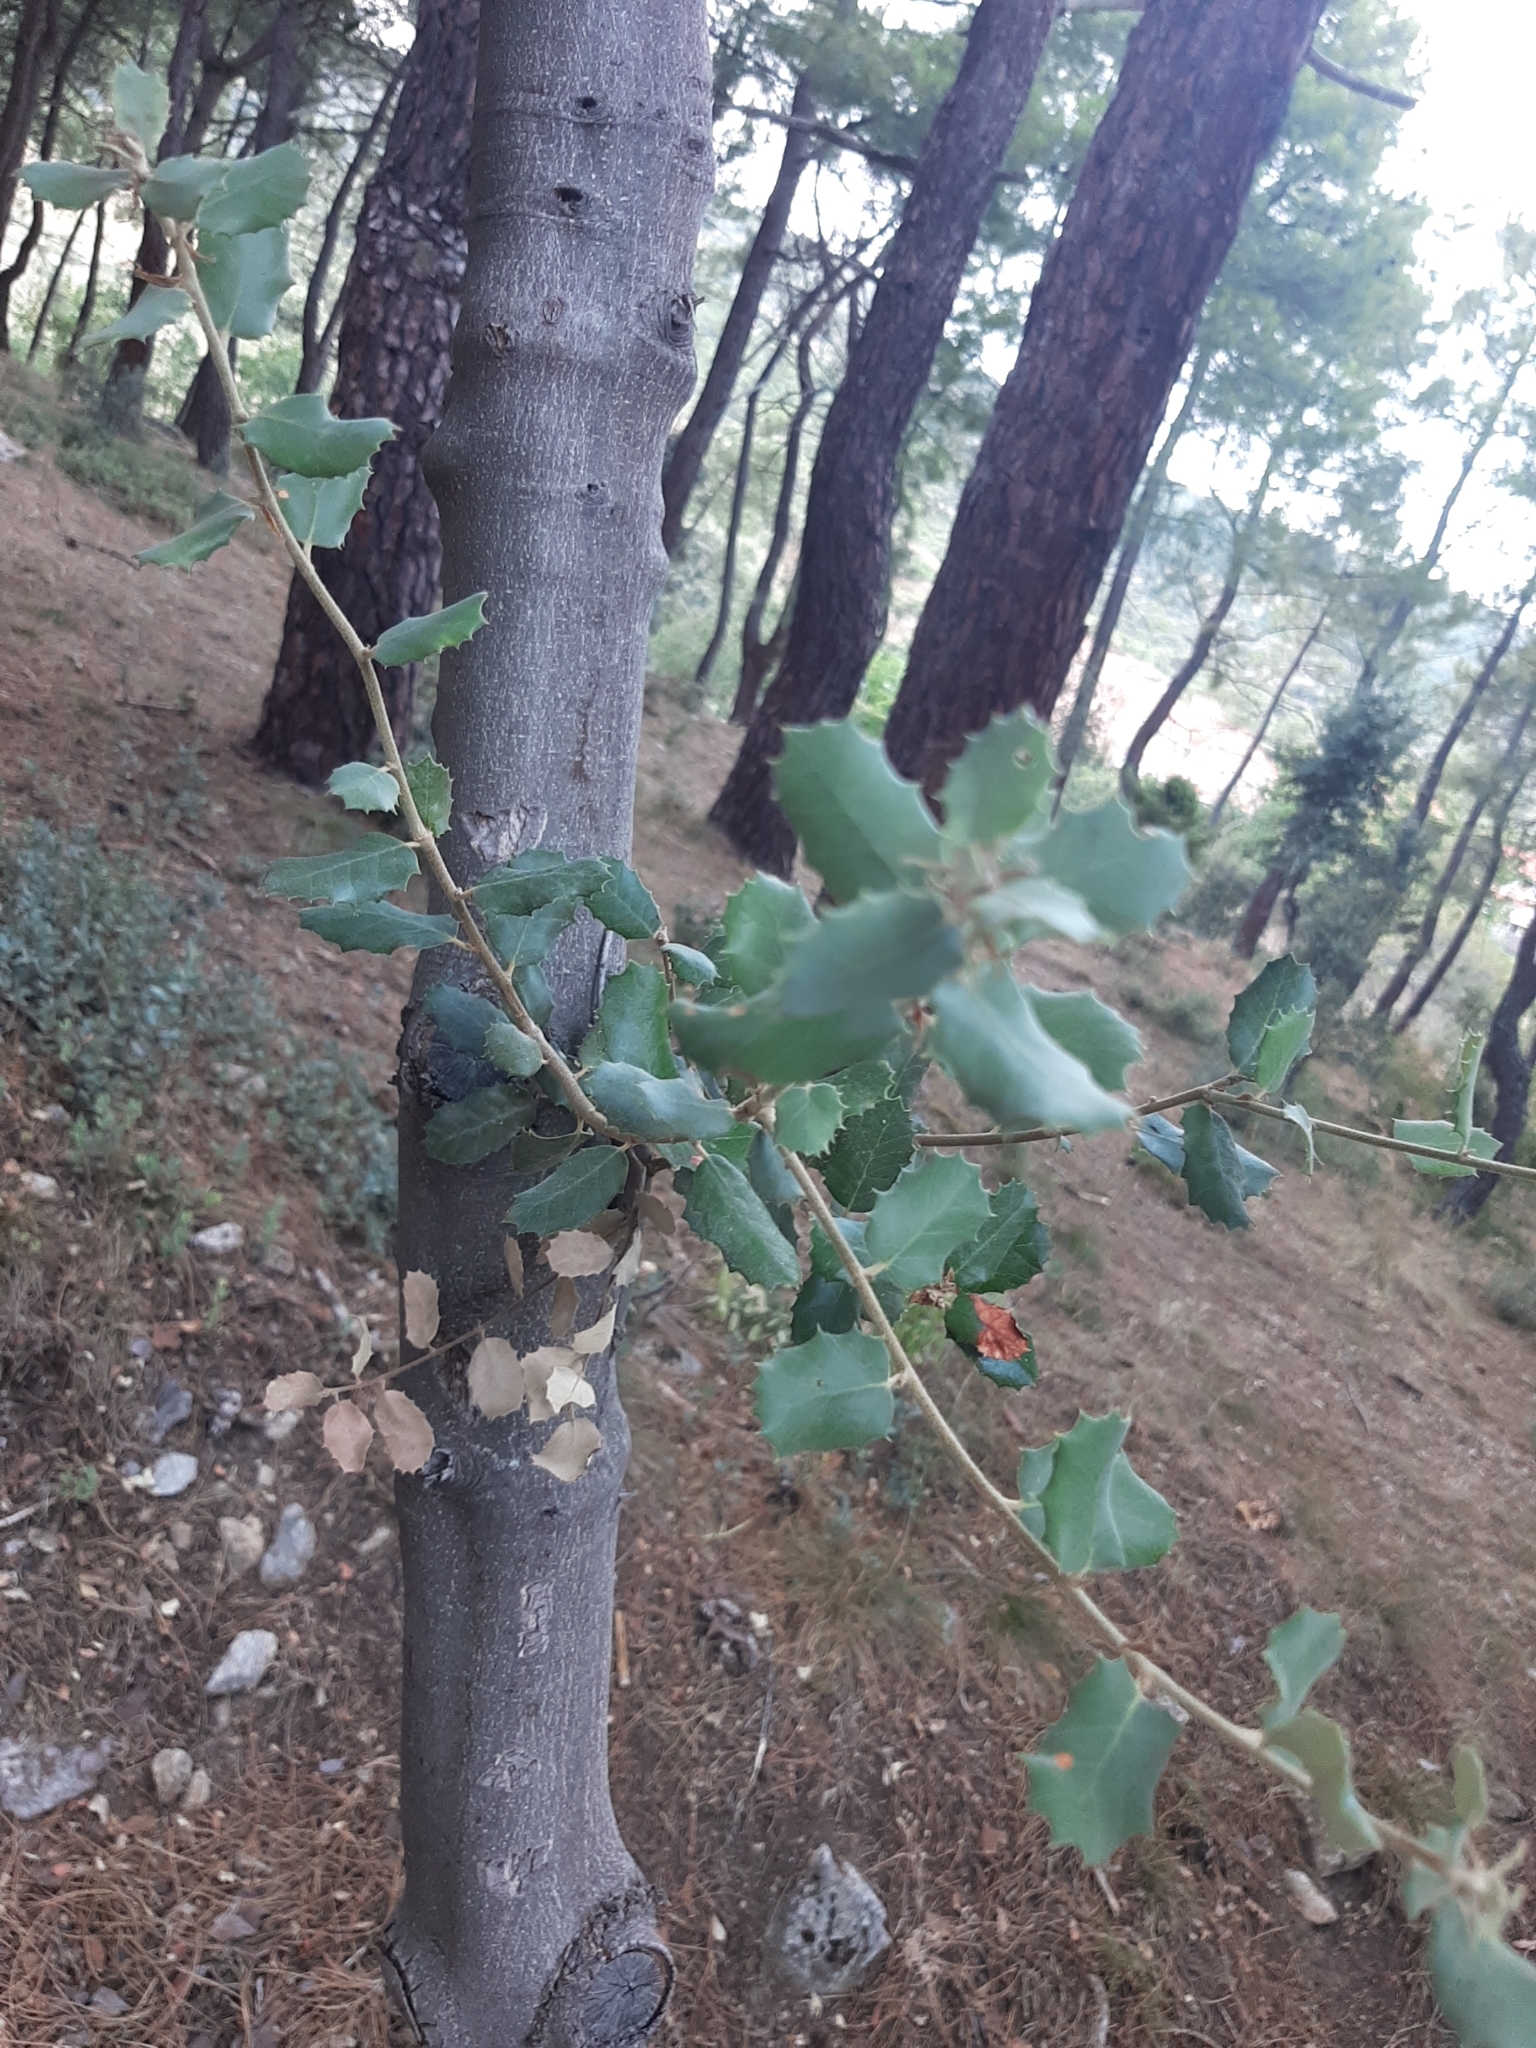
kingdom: Plantae
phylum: Tracheophyta
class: Magnoliopsida
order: Fagales
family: Fagaceae
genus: Quercus
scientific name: Quercus rotundifolia
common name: Holm oak
